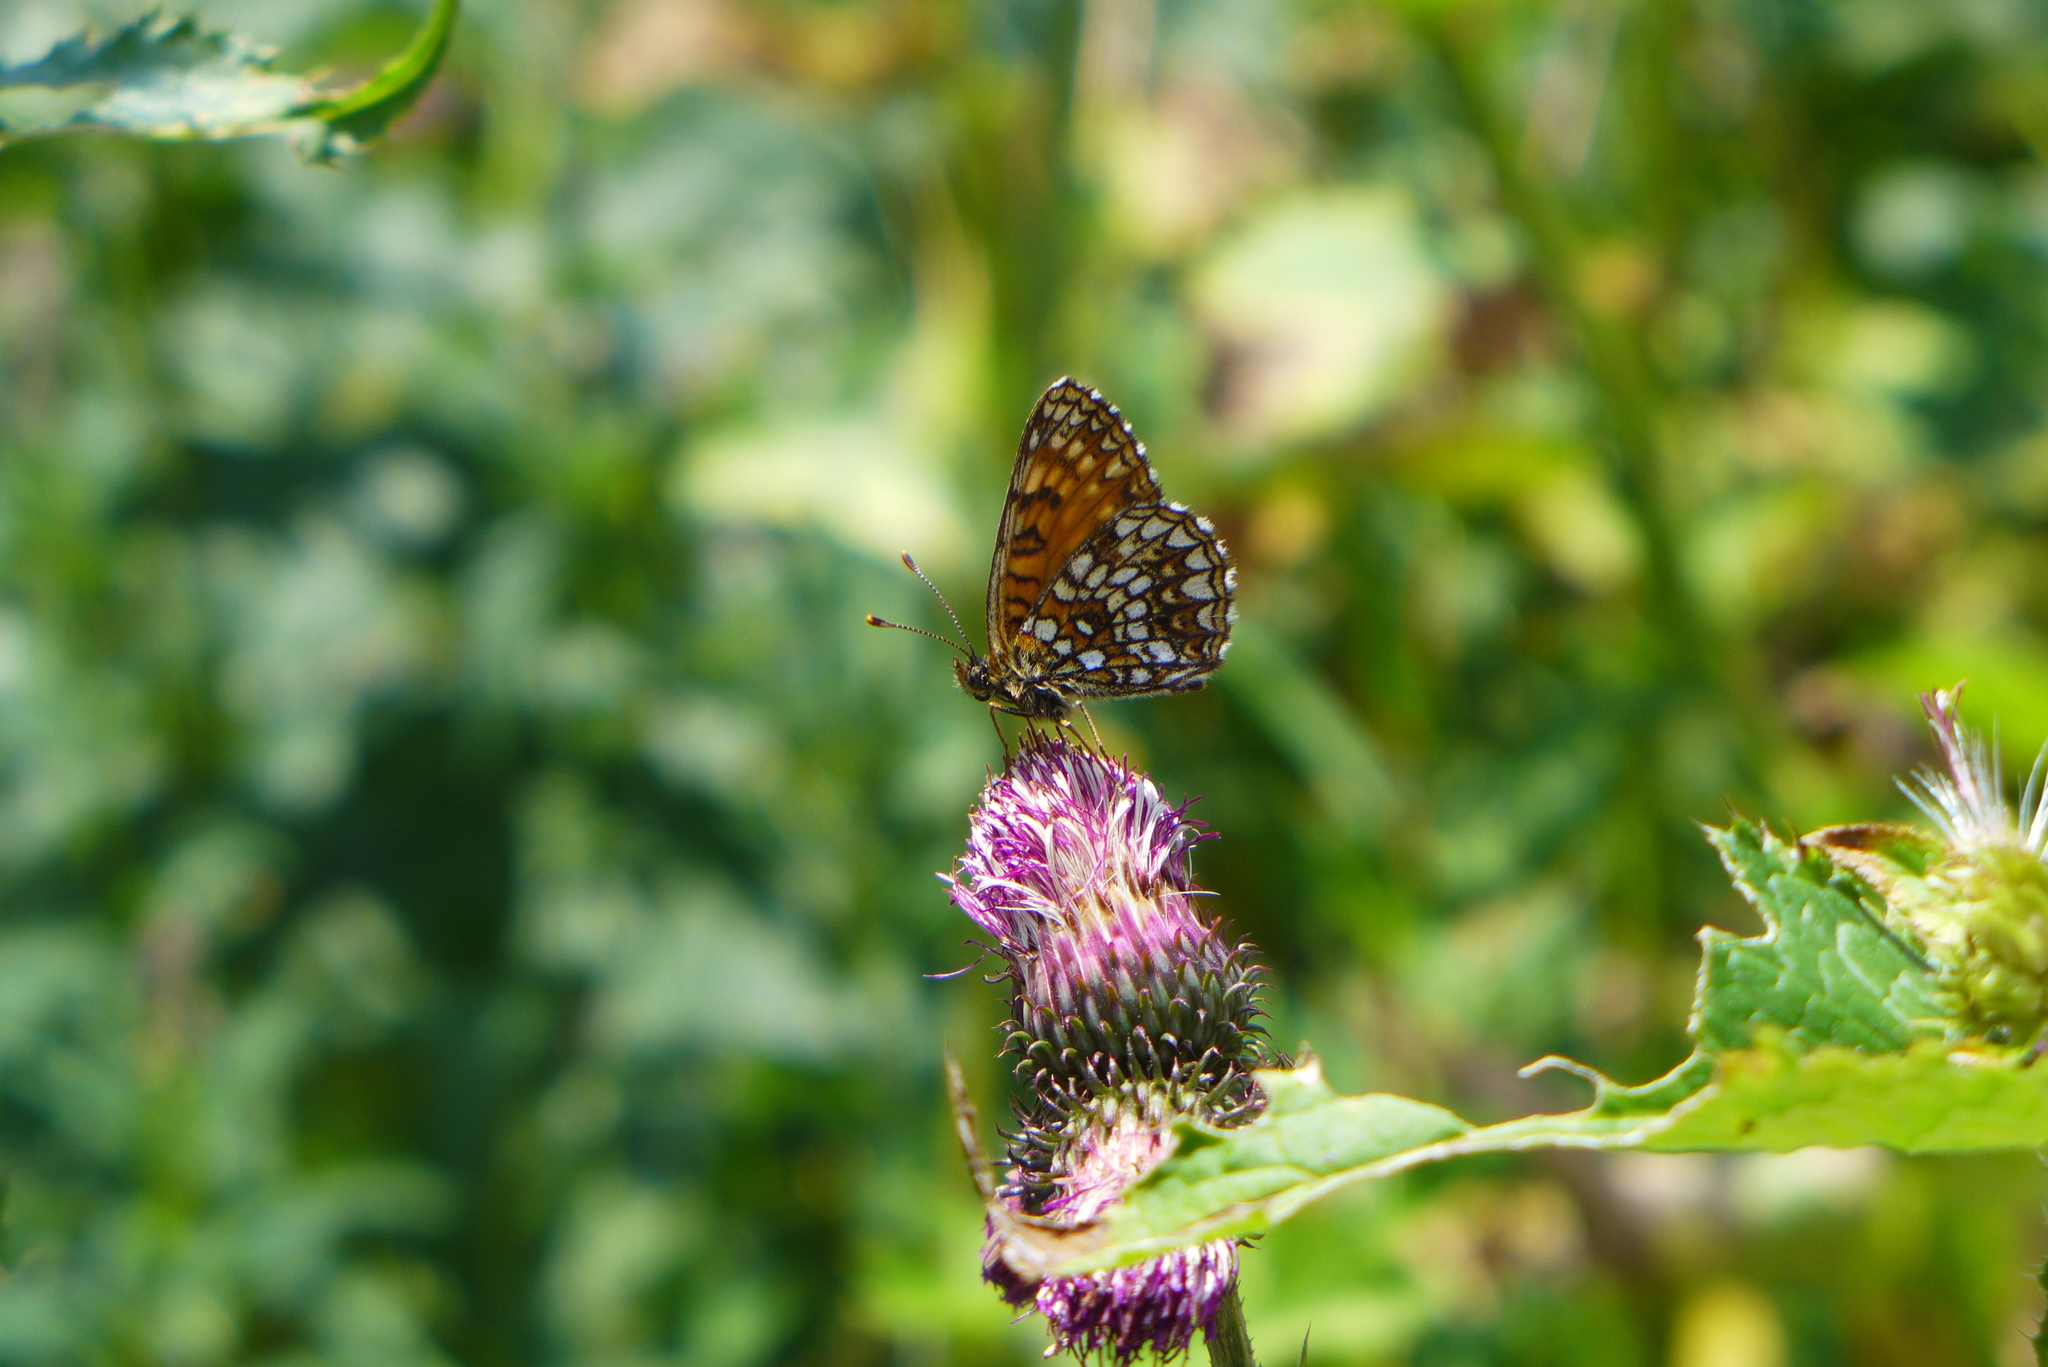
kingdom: Animalia
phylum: Arthropoda
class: Insecta
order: Lepidoptera
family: Nymphalidae
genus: Melitaea
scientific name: Melitaea diamina
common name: False heath fritillary
